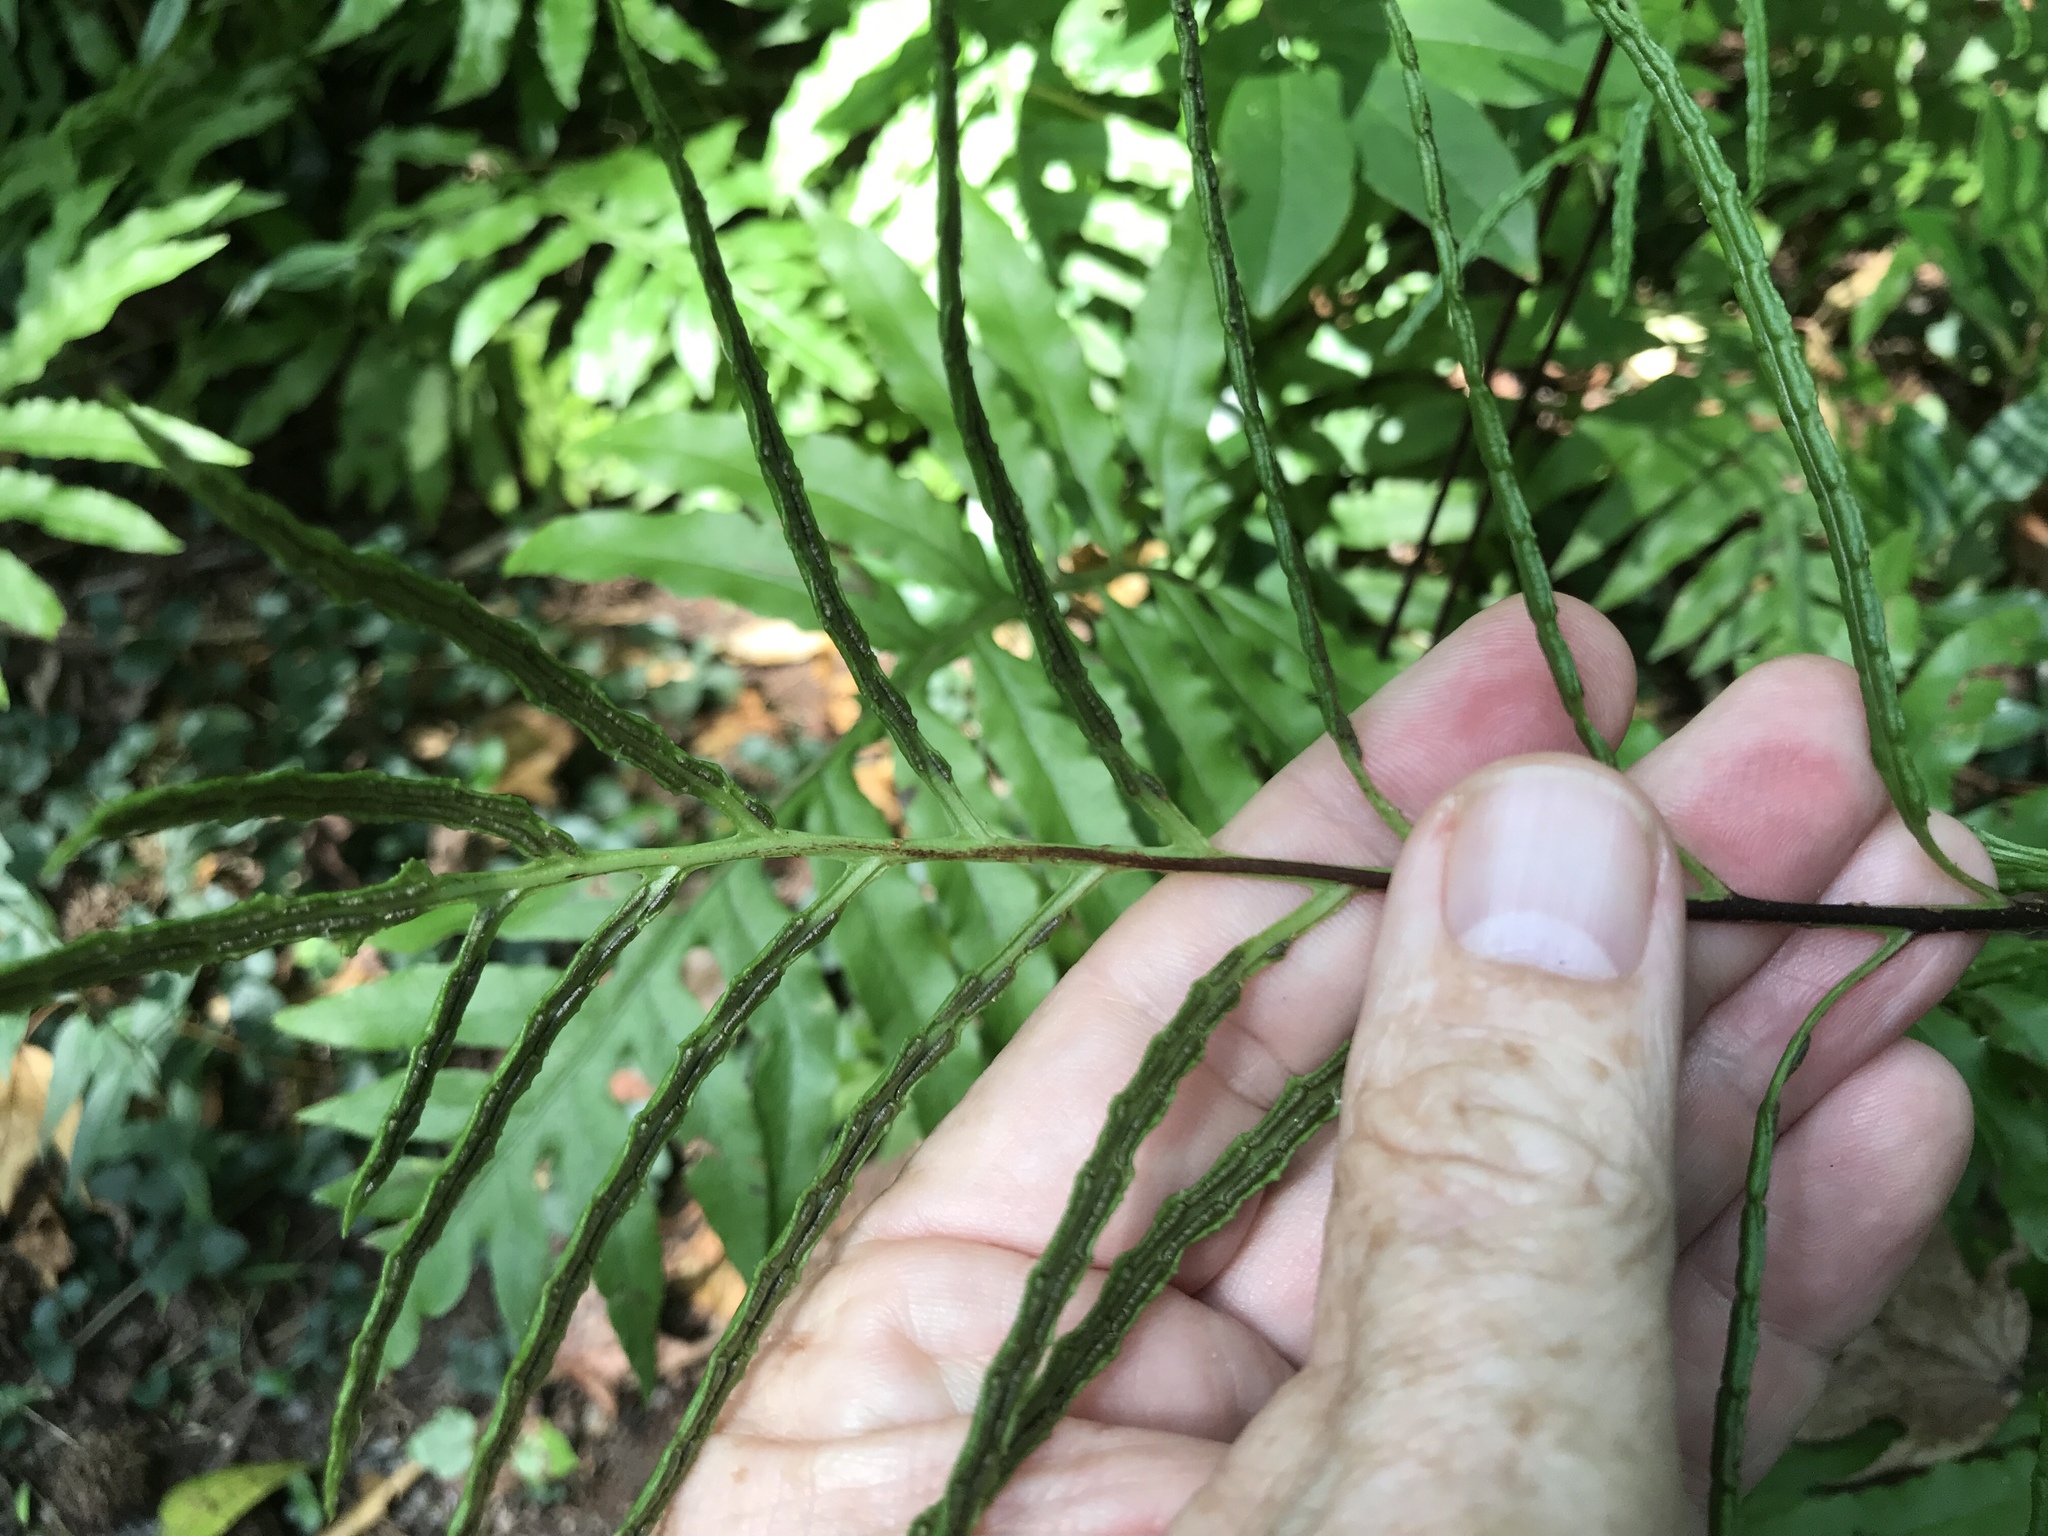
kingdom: Plantae
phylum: Tracheophyta
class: Polypodiopsida
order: Polypodiales
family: Blechnaceae
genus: Lorinseria
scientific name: Lorinseria areolata
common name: Dwarf chain fern
